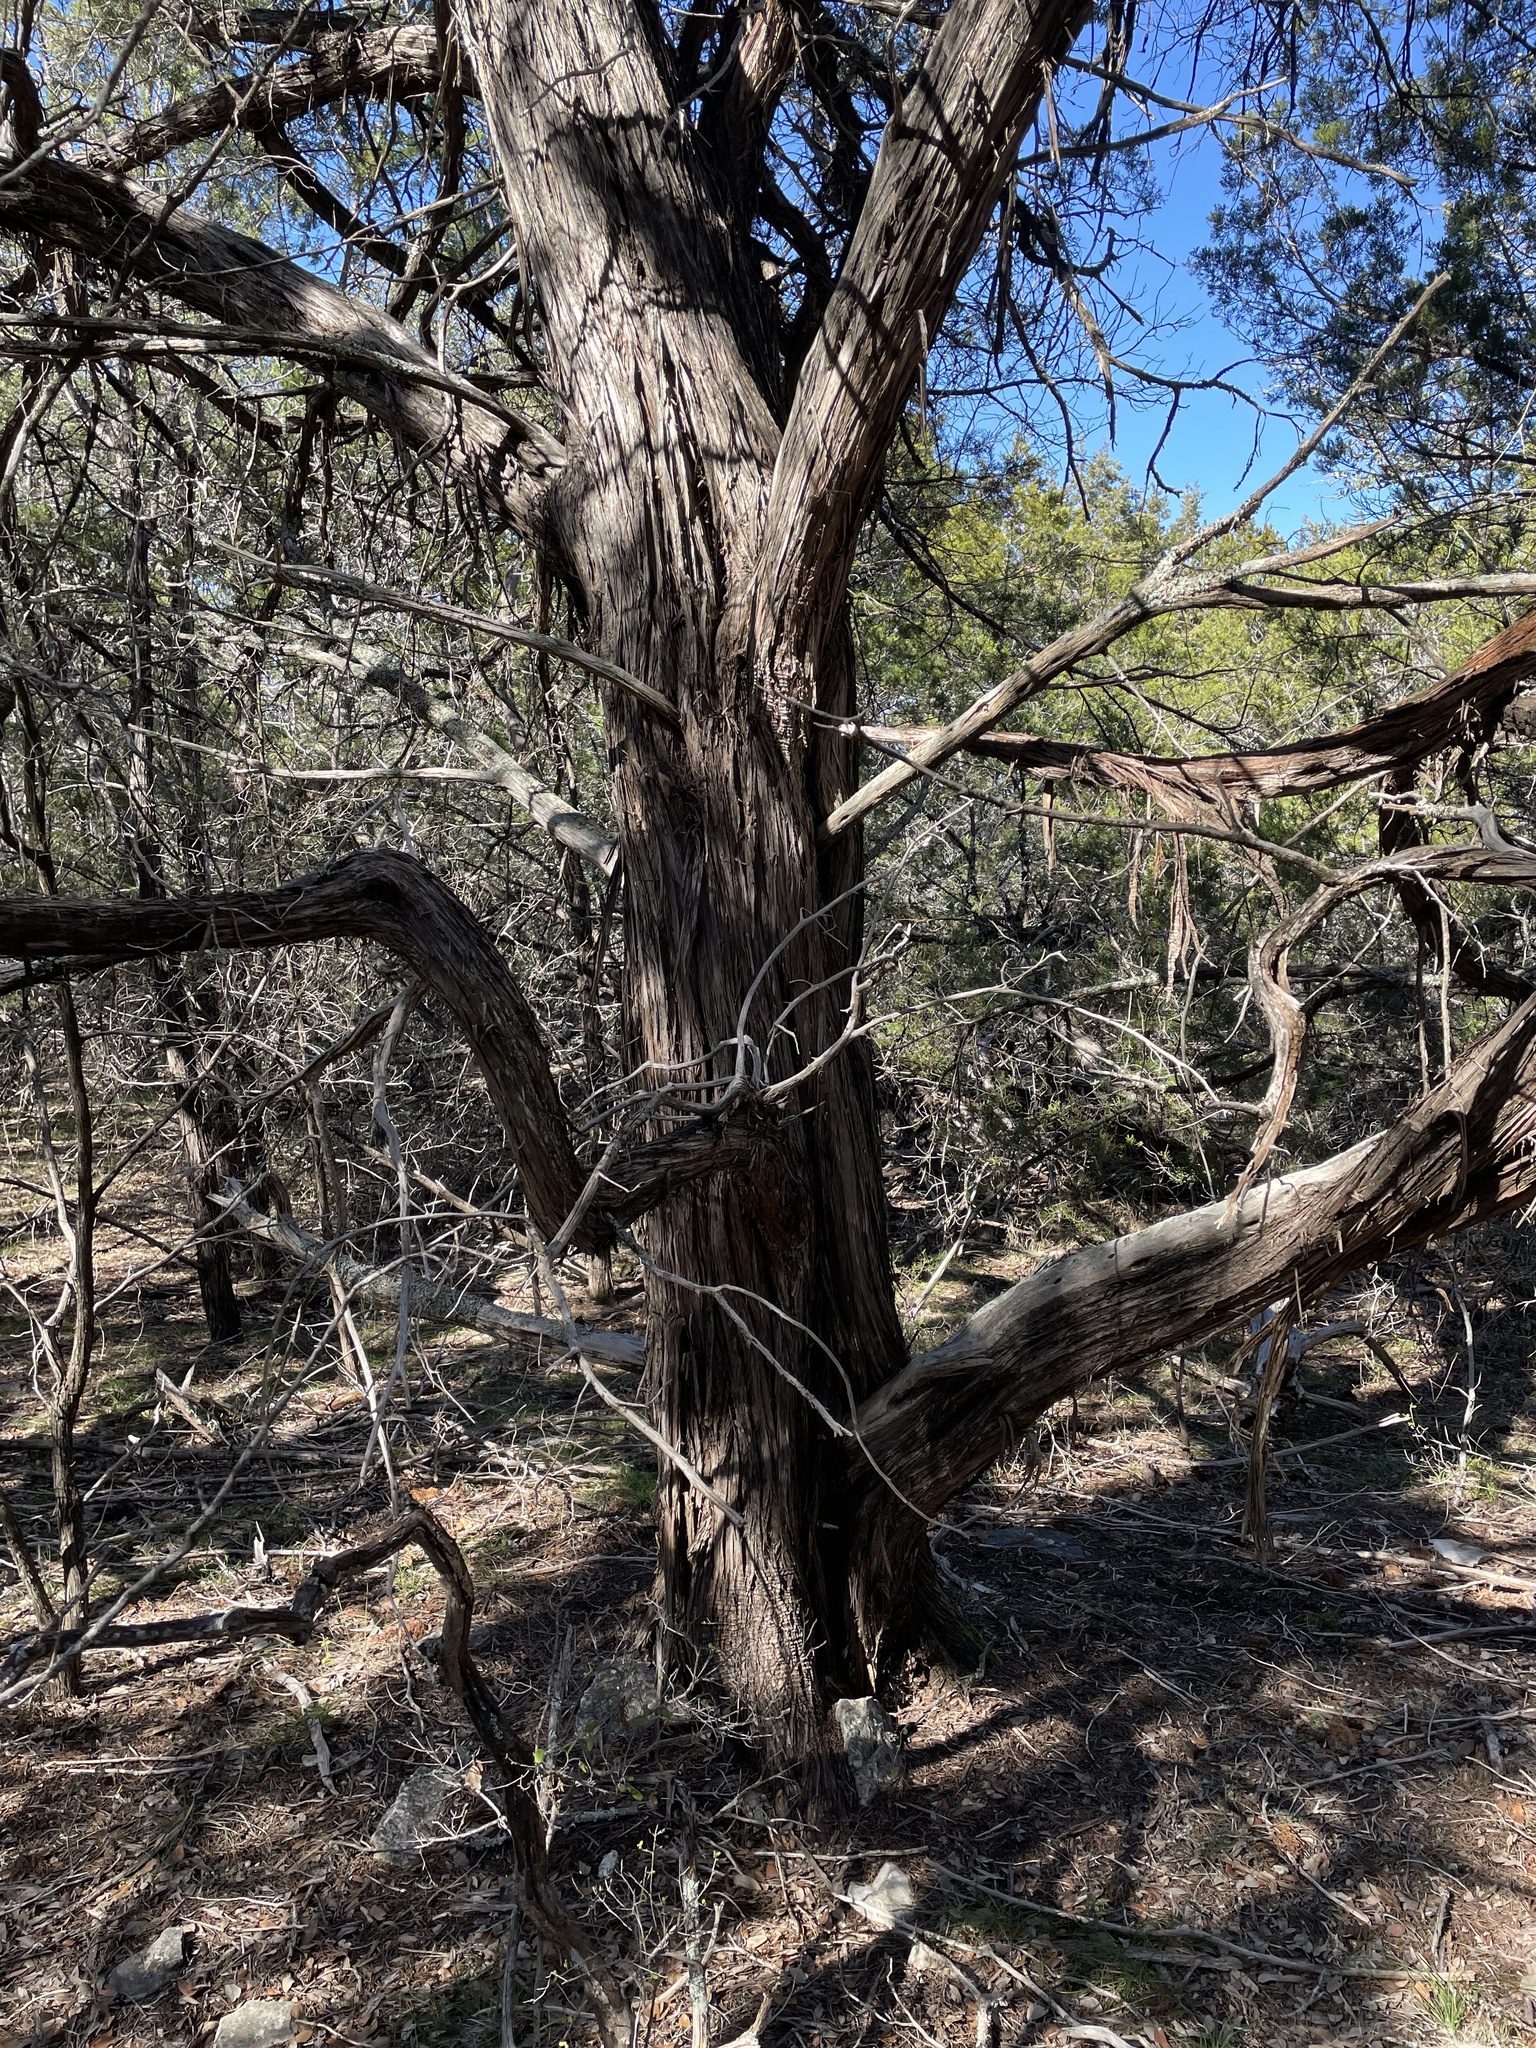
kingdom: Plantae
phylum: Tracheophyta
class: Pinopsida
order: Pinales
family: Cupressaceae
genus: Juniperus
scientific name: Juniperus ashei
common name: Mexican juniper
